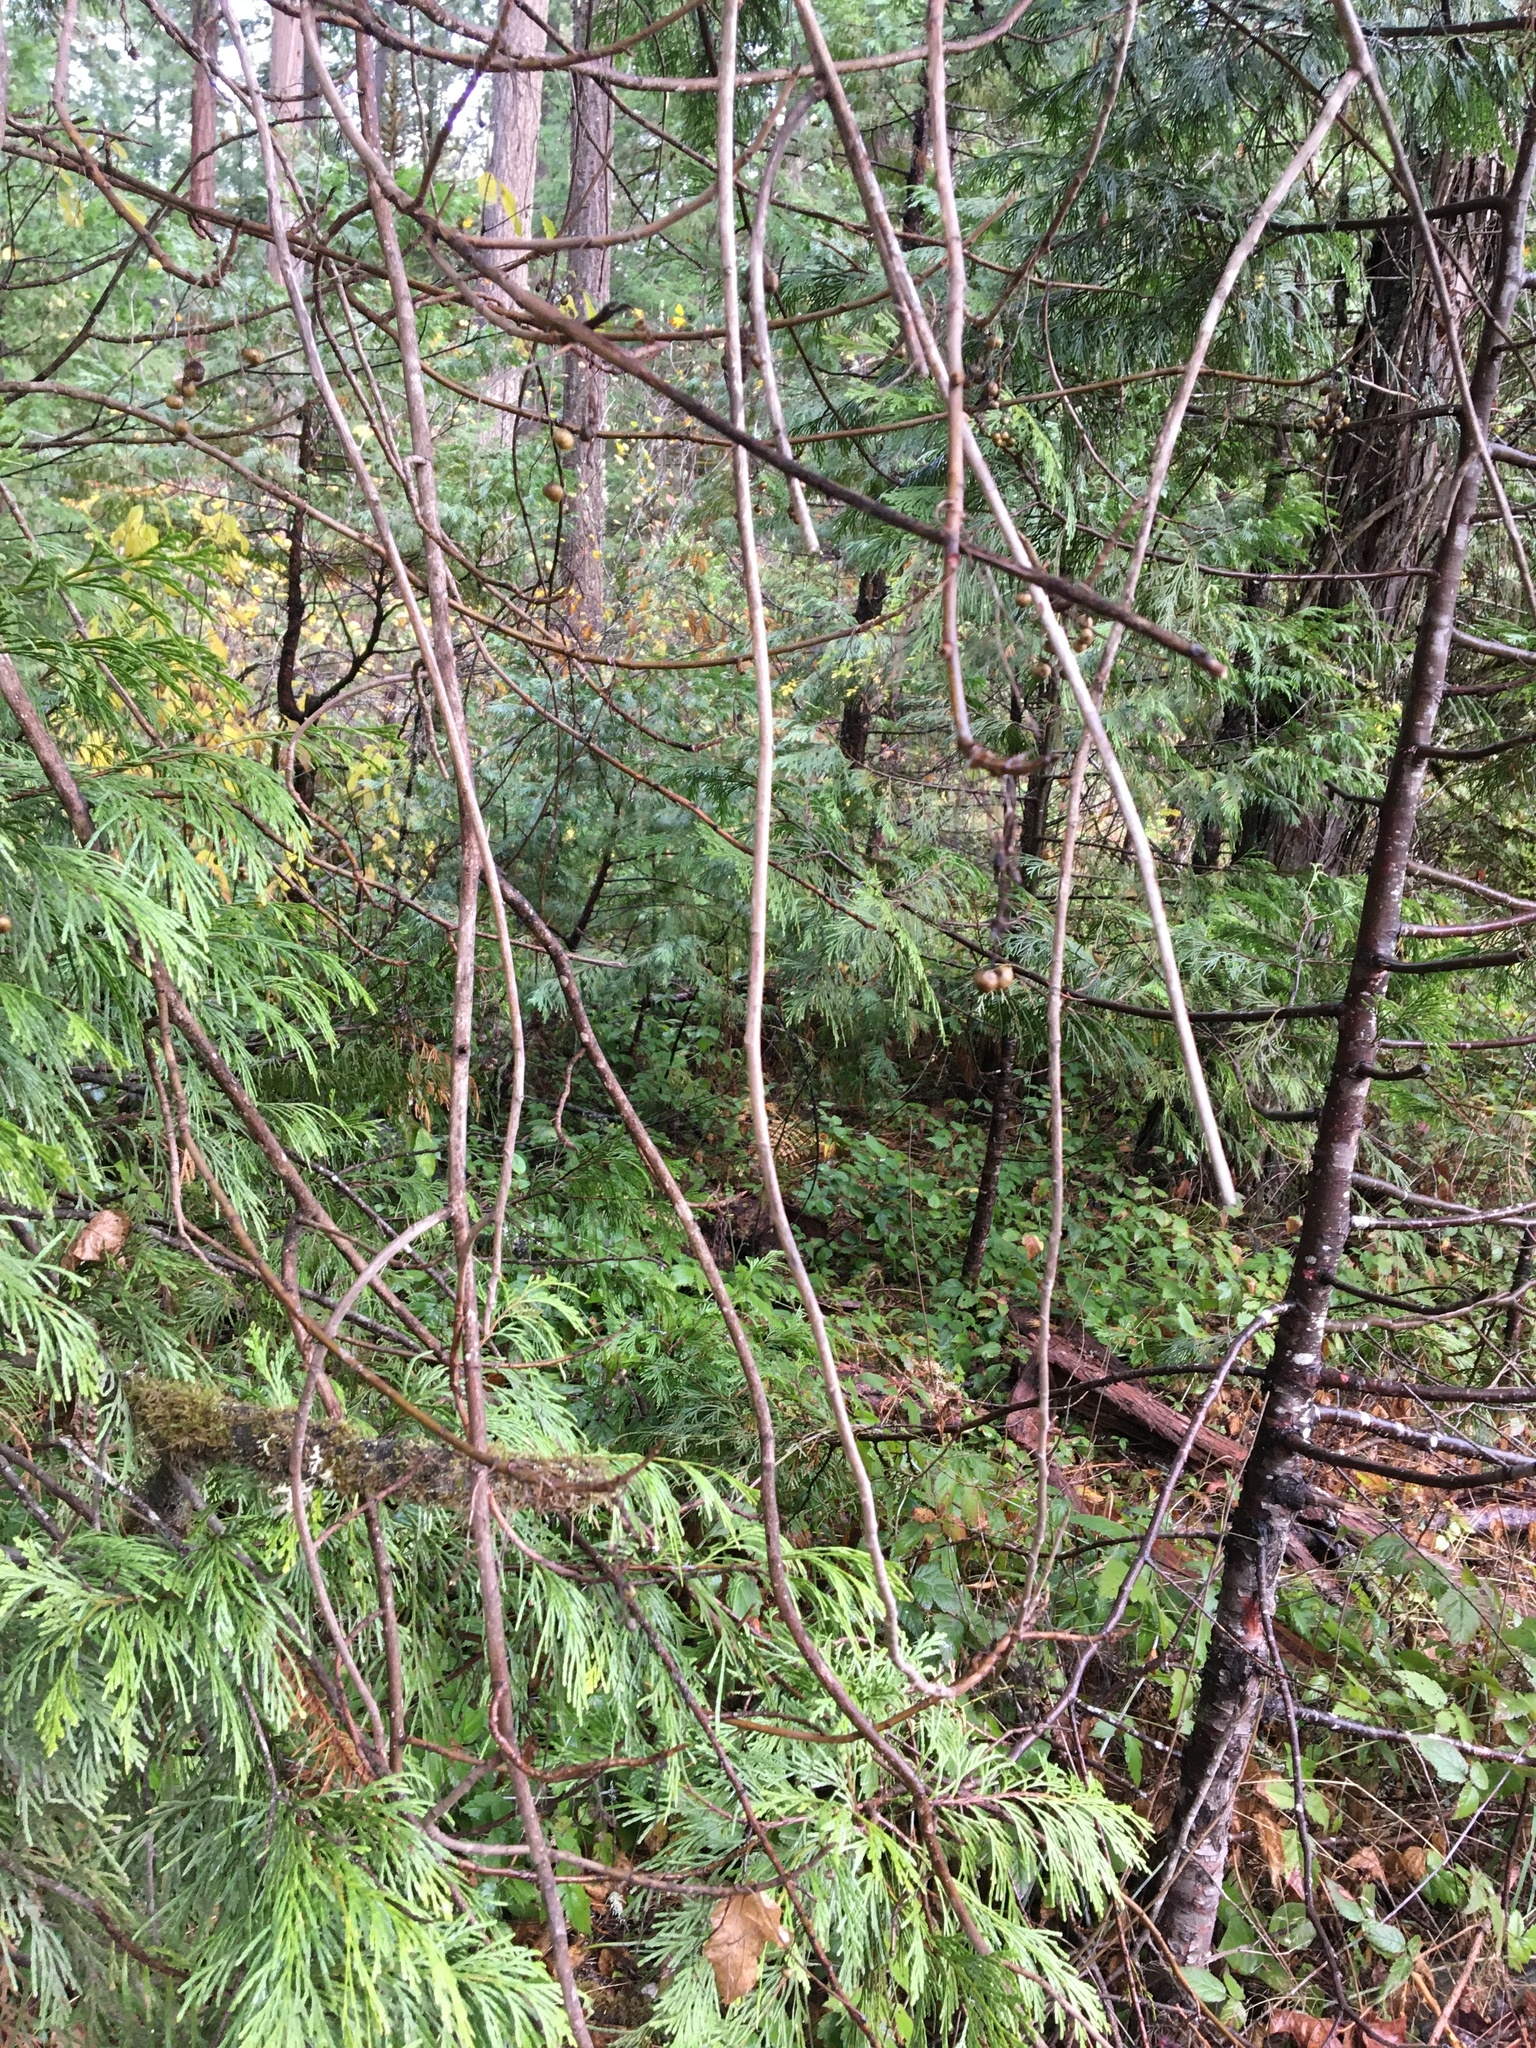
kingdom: Plantae
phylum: Tracheophyta
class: Magnoliopsida
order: Sapindales
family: Anacardiaceae
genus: Toxicodendron
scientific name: Toxicodendron diversilobum
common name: Pacific poison-oak
